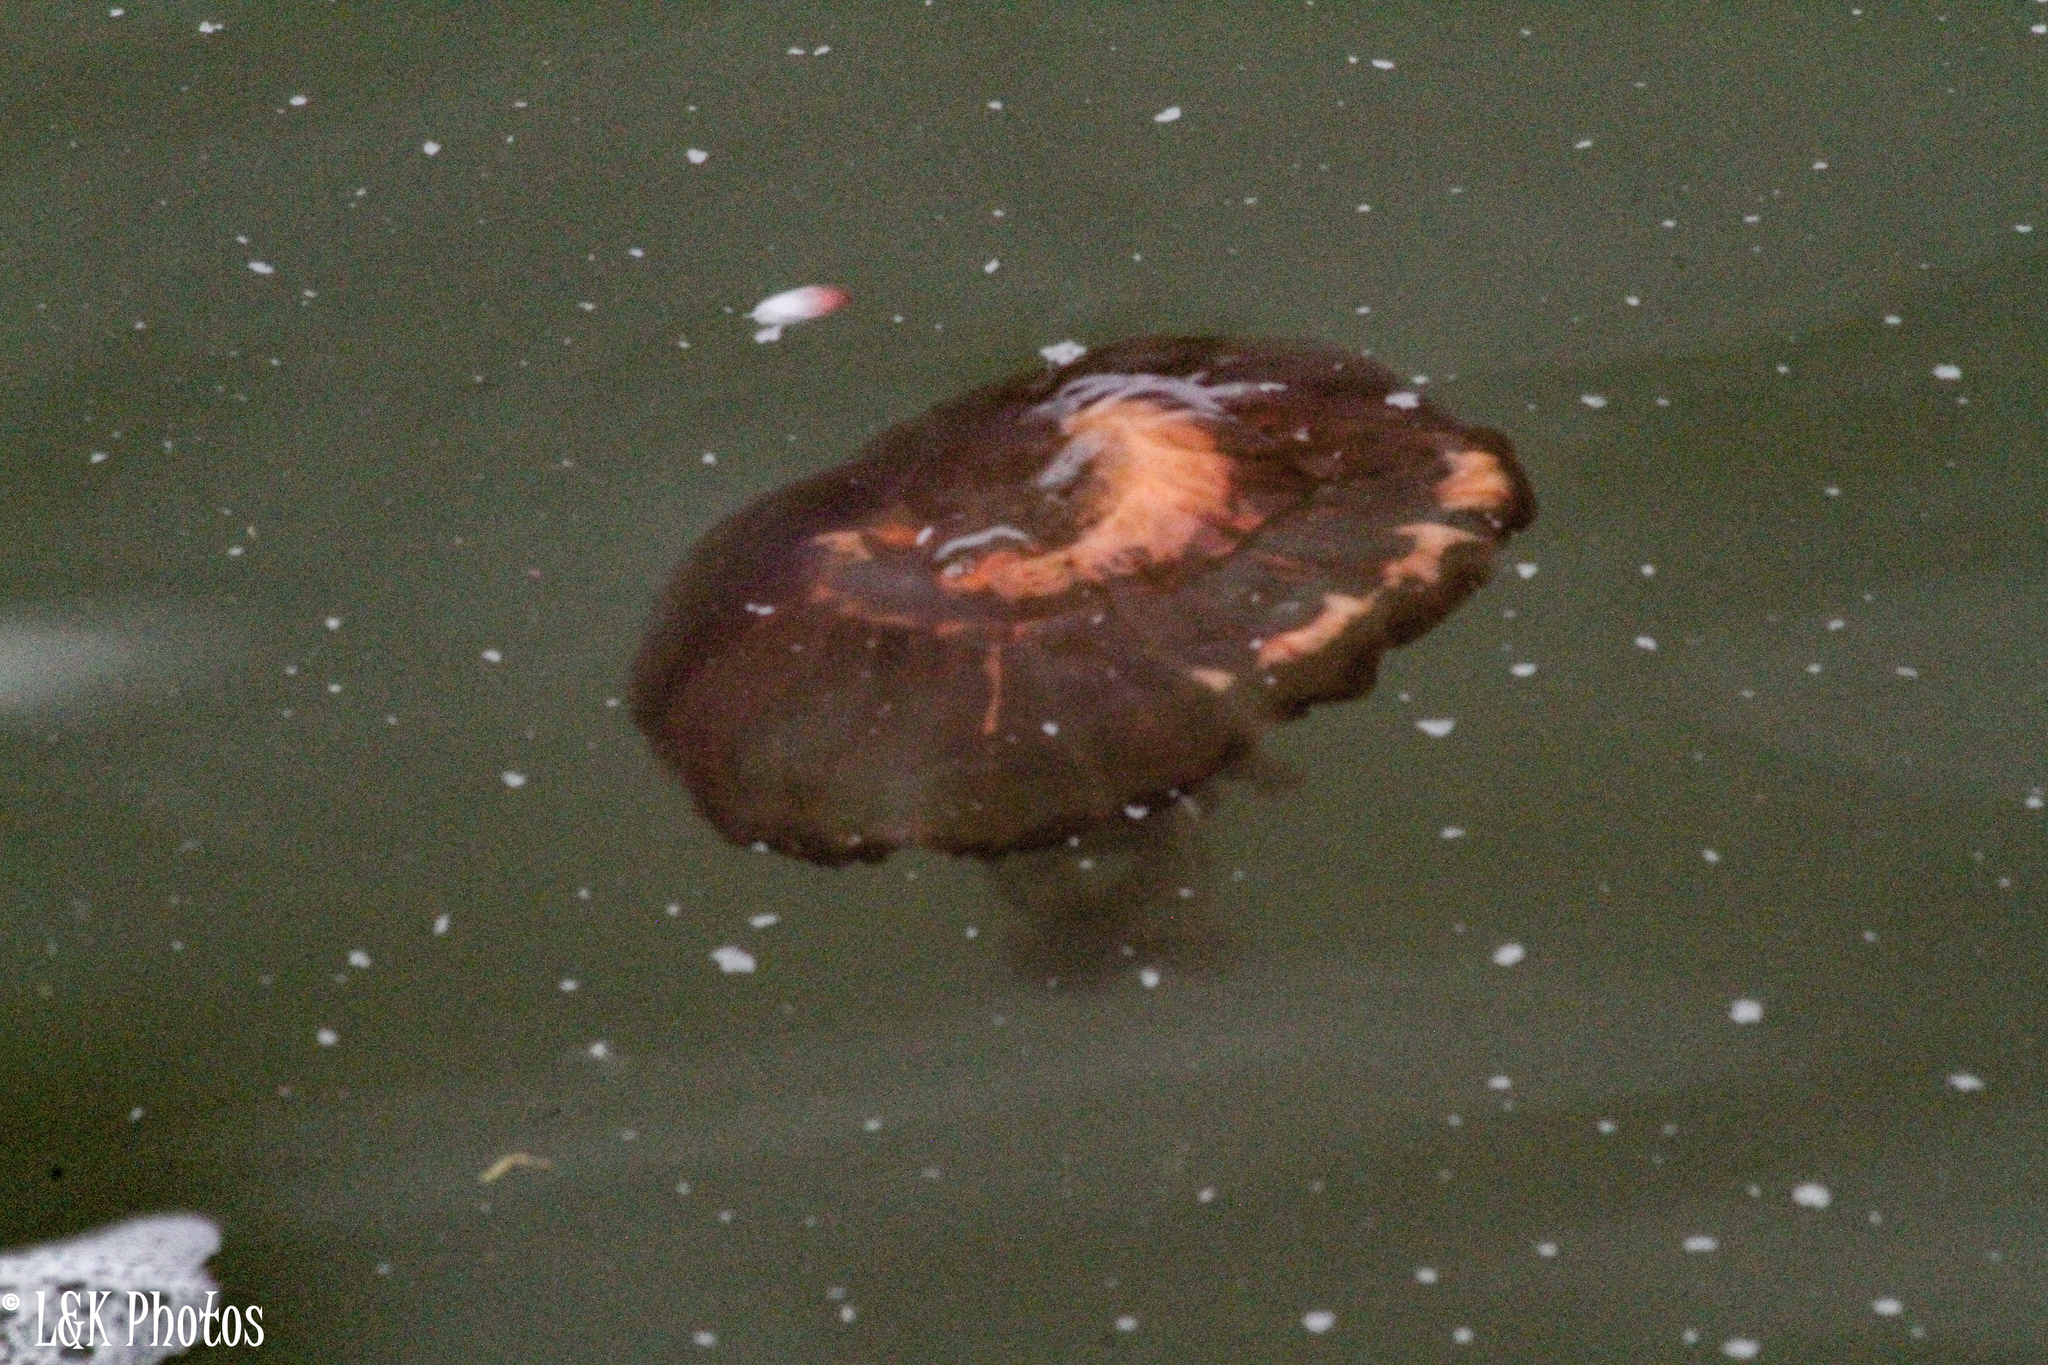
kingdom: Animalia
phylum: Cnidaria
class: Scyphozoa
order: Semaeostomeae
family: Pelagiidae
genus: Chrysaora
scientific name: Chrysaora fulgida
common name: Sea nettle
